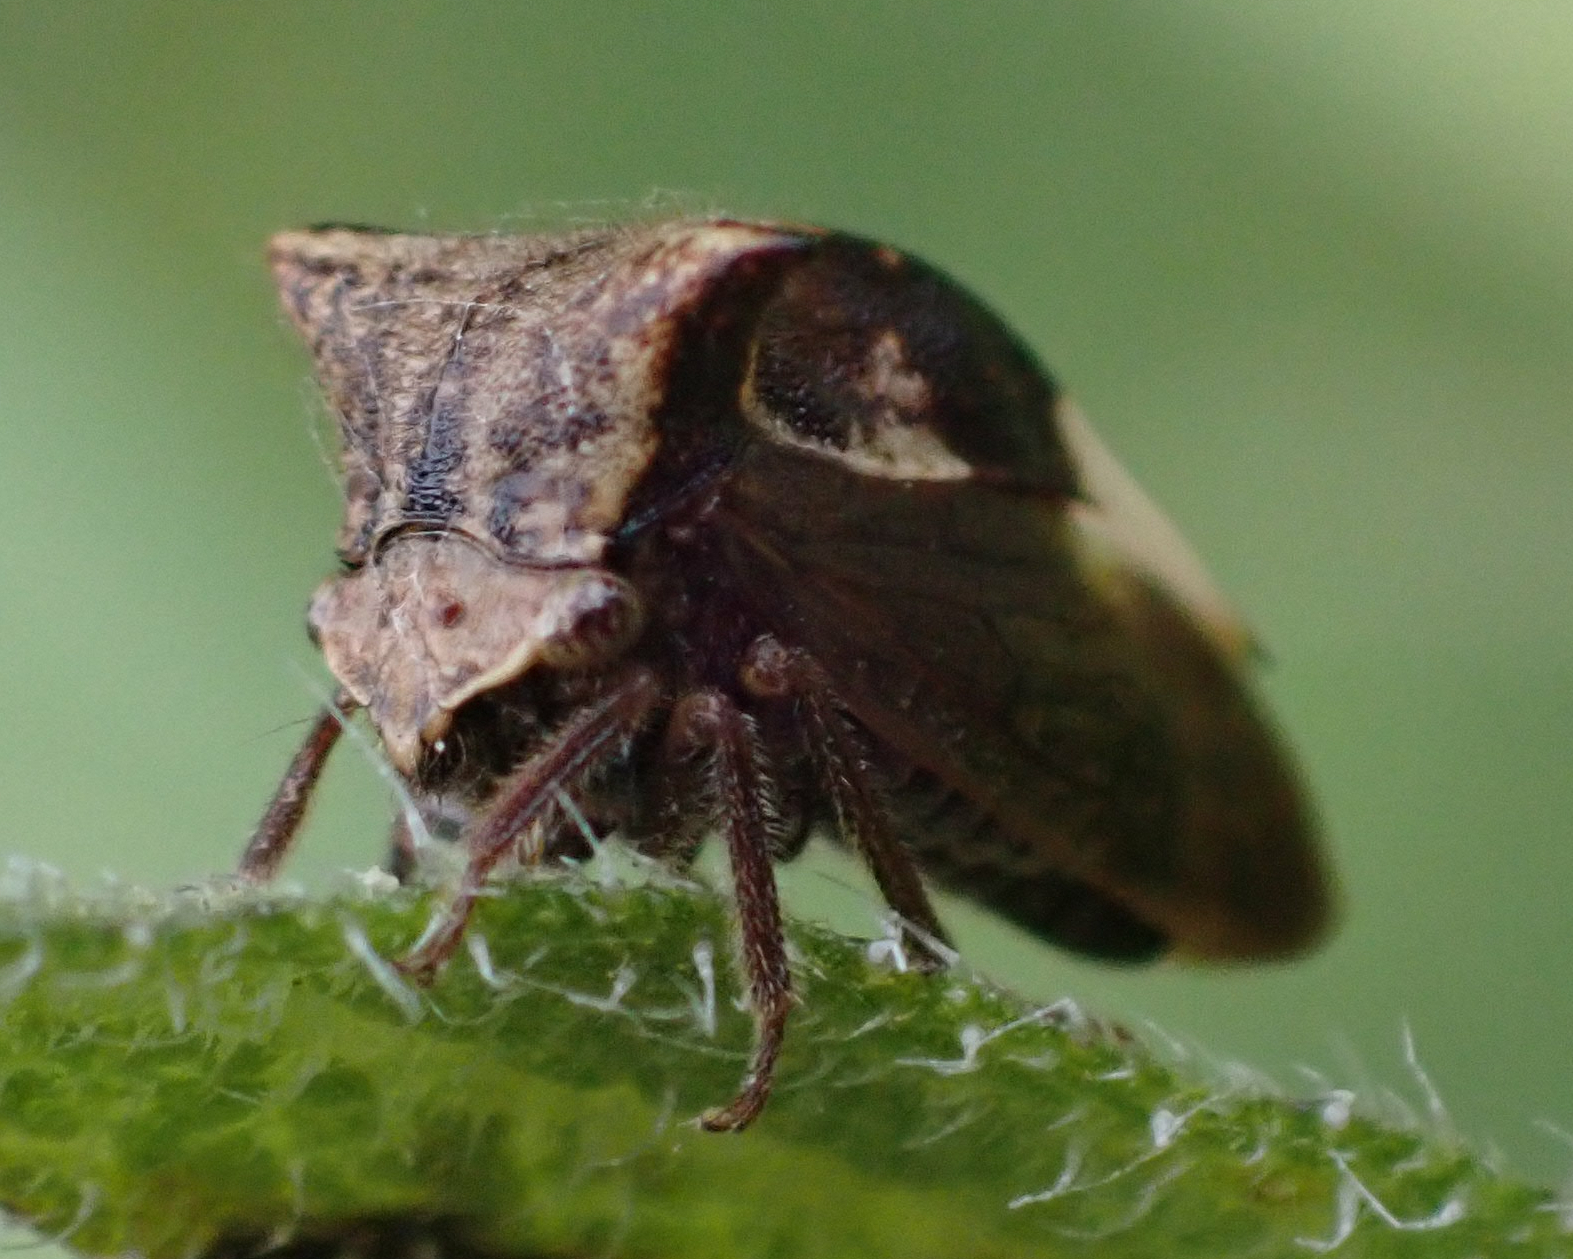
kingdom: Animalia
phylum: Arthropoda
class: Insecta
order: Hemiptera
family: Membracidae
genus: Stictocephala
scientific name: Stictocephala diceros
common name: Two-horned treehopper
